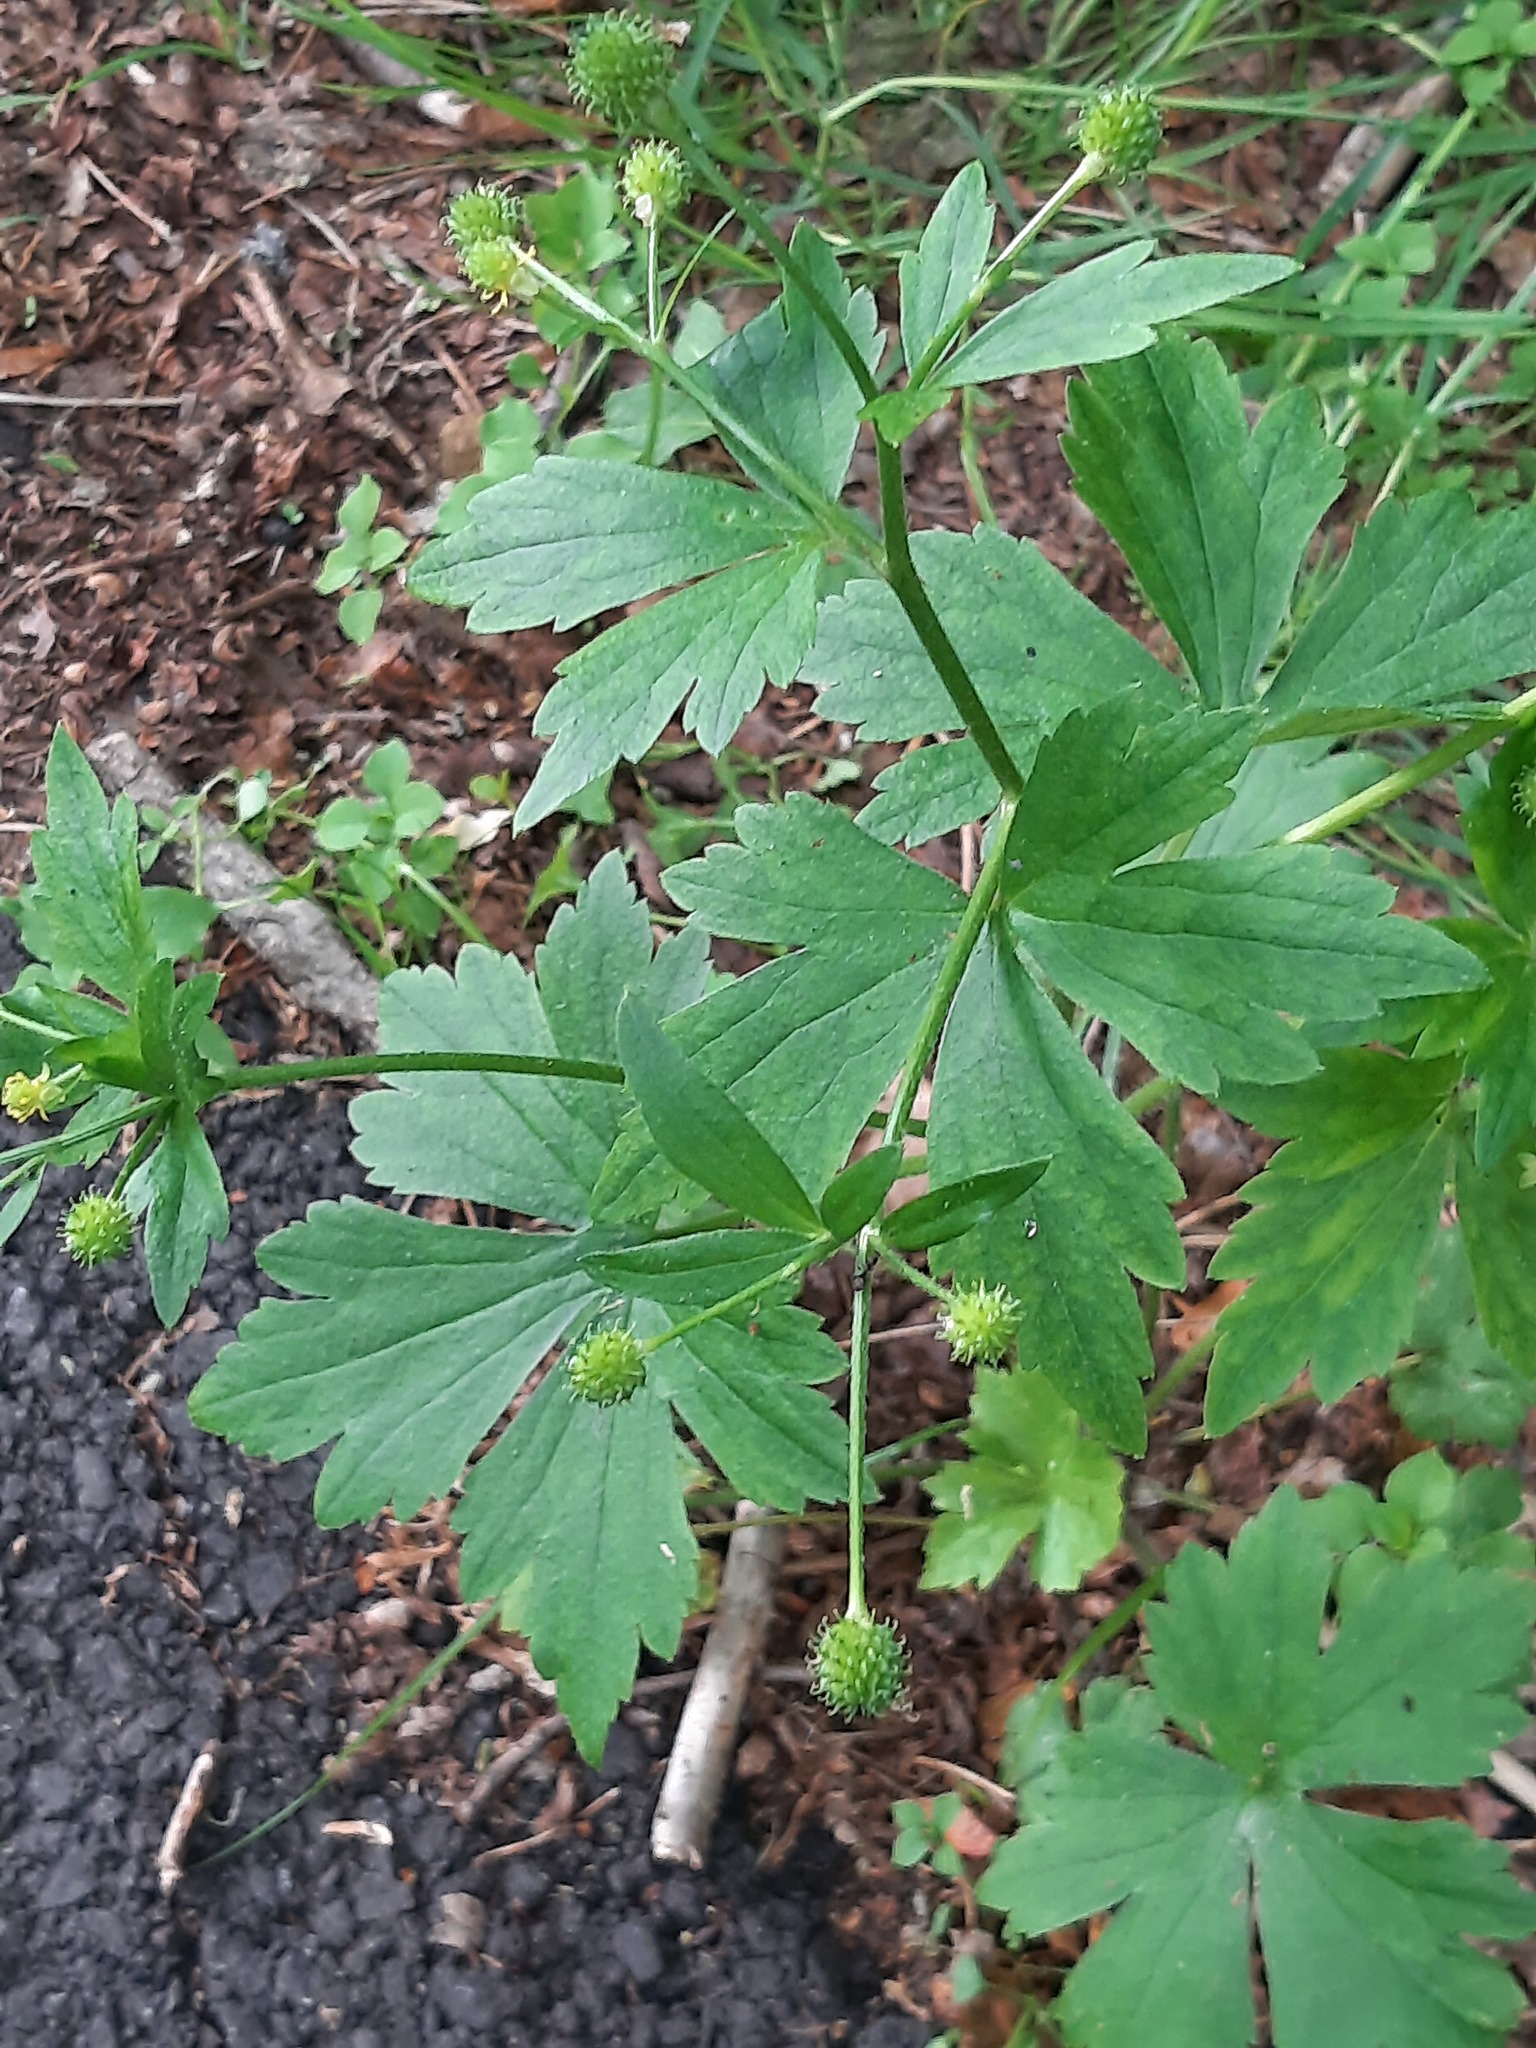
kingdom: Plantae
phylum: Tracheophyta
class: Magnoliopsida
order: Ranunculales
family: Ranunculaceae
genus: Ranunculus
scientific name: Ranunculus recurvatus
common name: Blisterwort
